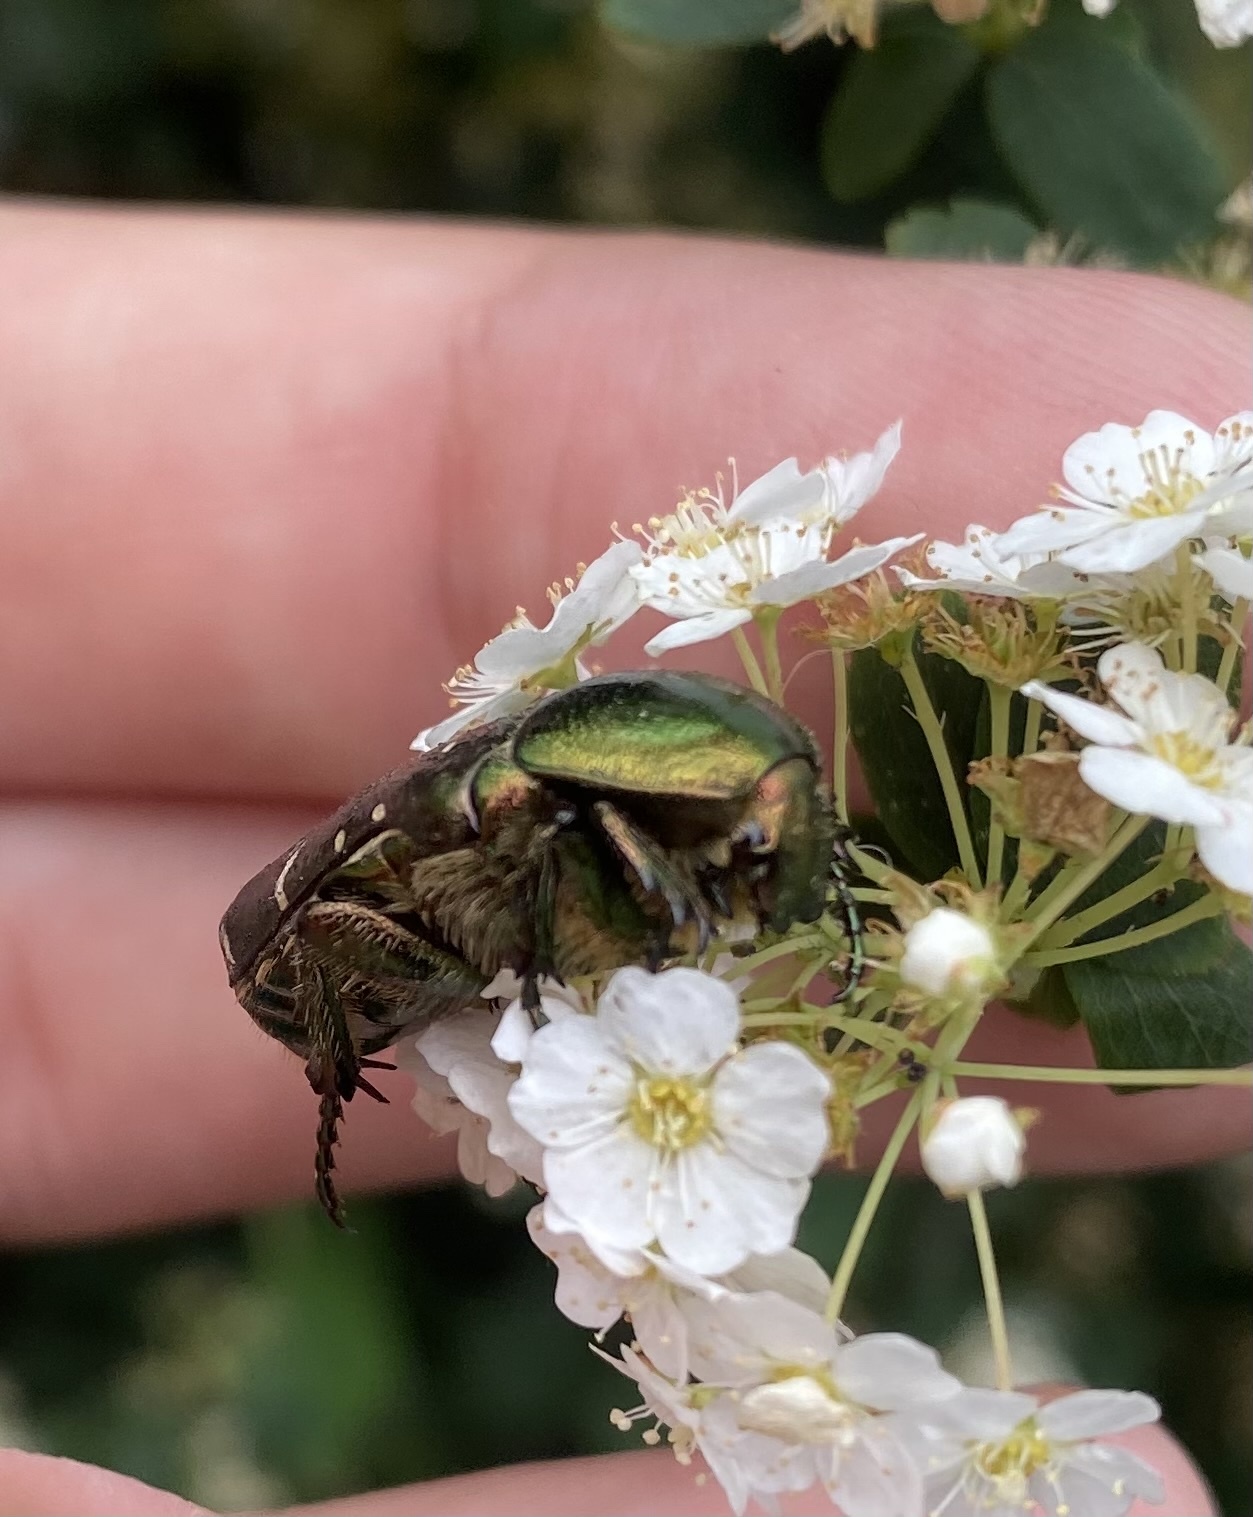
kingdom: Animalia
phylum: Arthropoda
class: Insecta
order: Coleoptera
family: Scarabaeidae
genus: Cetonia
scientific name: Cetonia aurata
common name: Rose chafer
